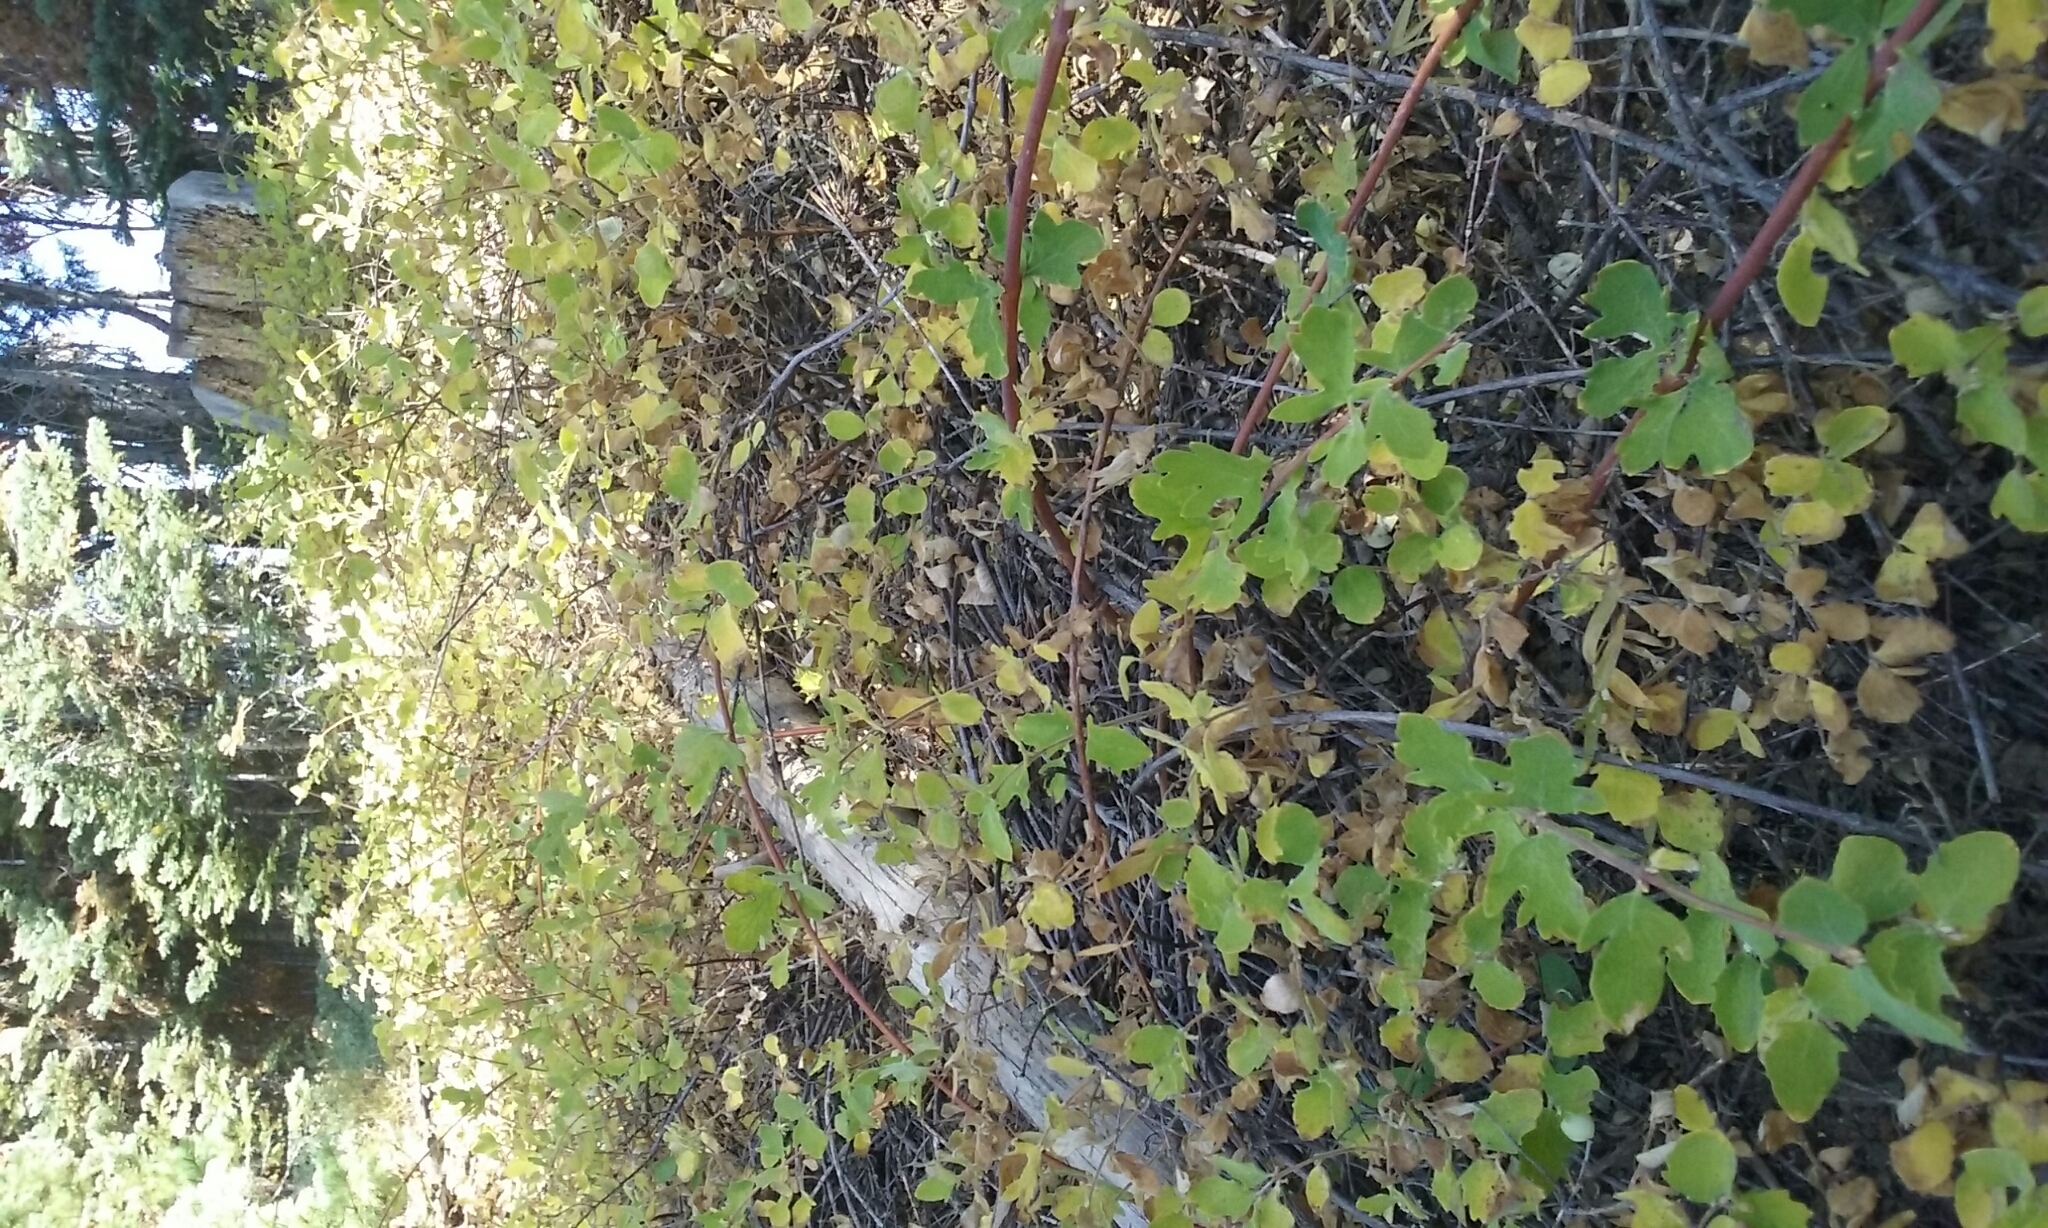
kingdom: Plantae
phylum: Tracheophyta
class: Magnoliopsida
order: Dipsacales
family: Caprifoliaceae
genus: Symphoricarpos
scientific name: Symphoricarpos mollis
